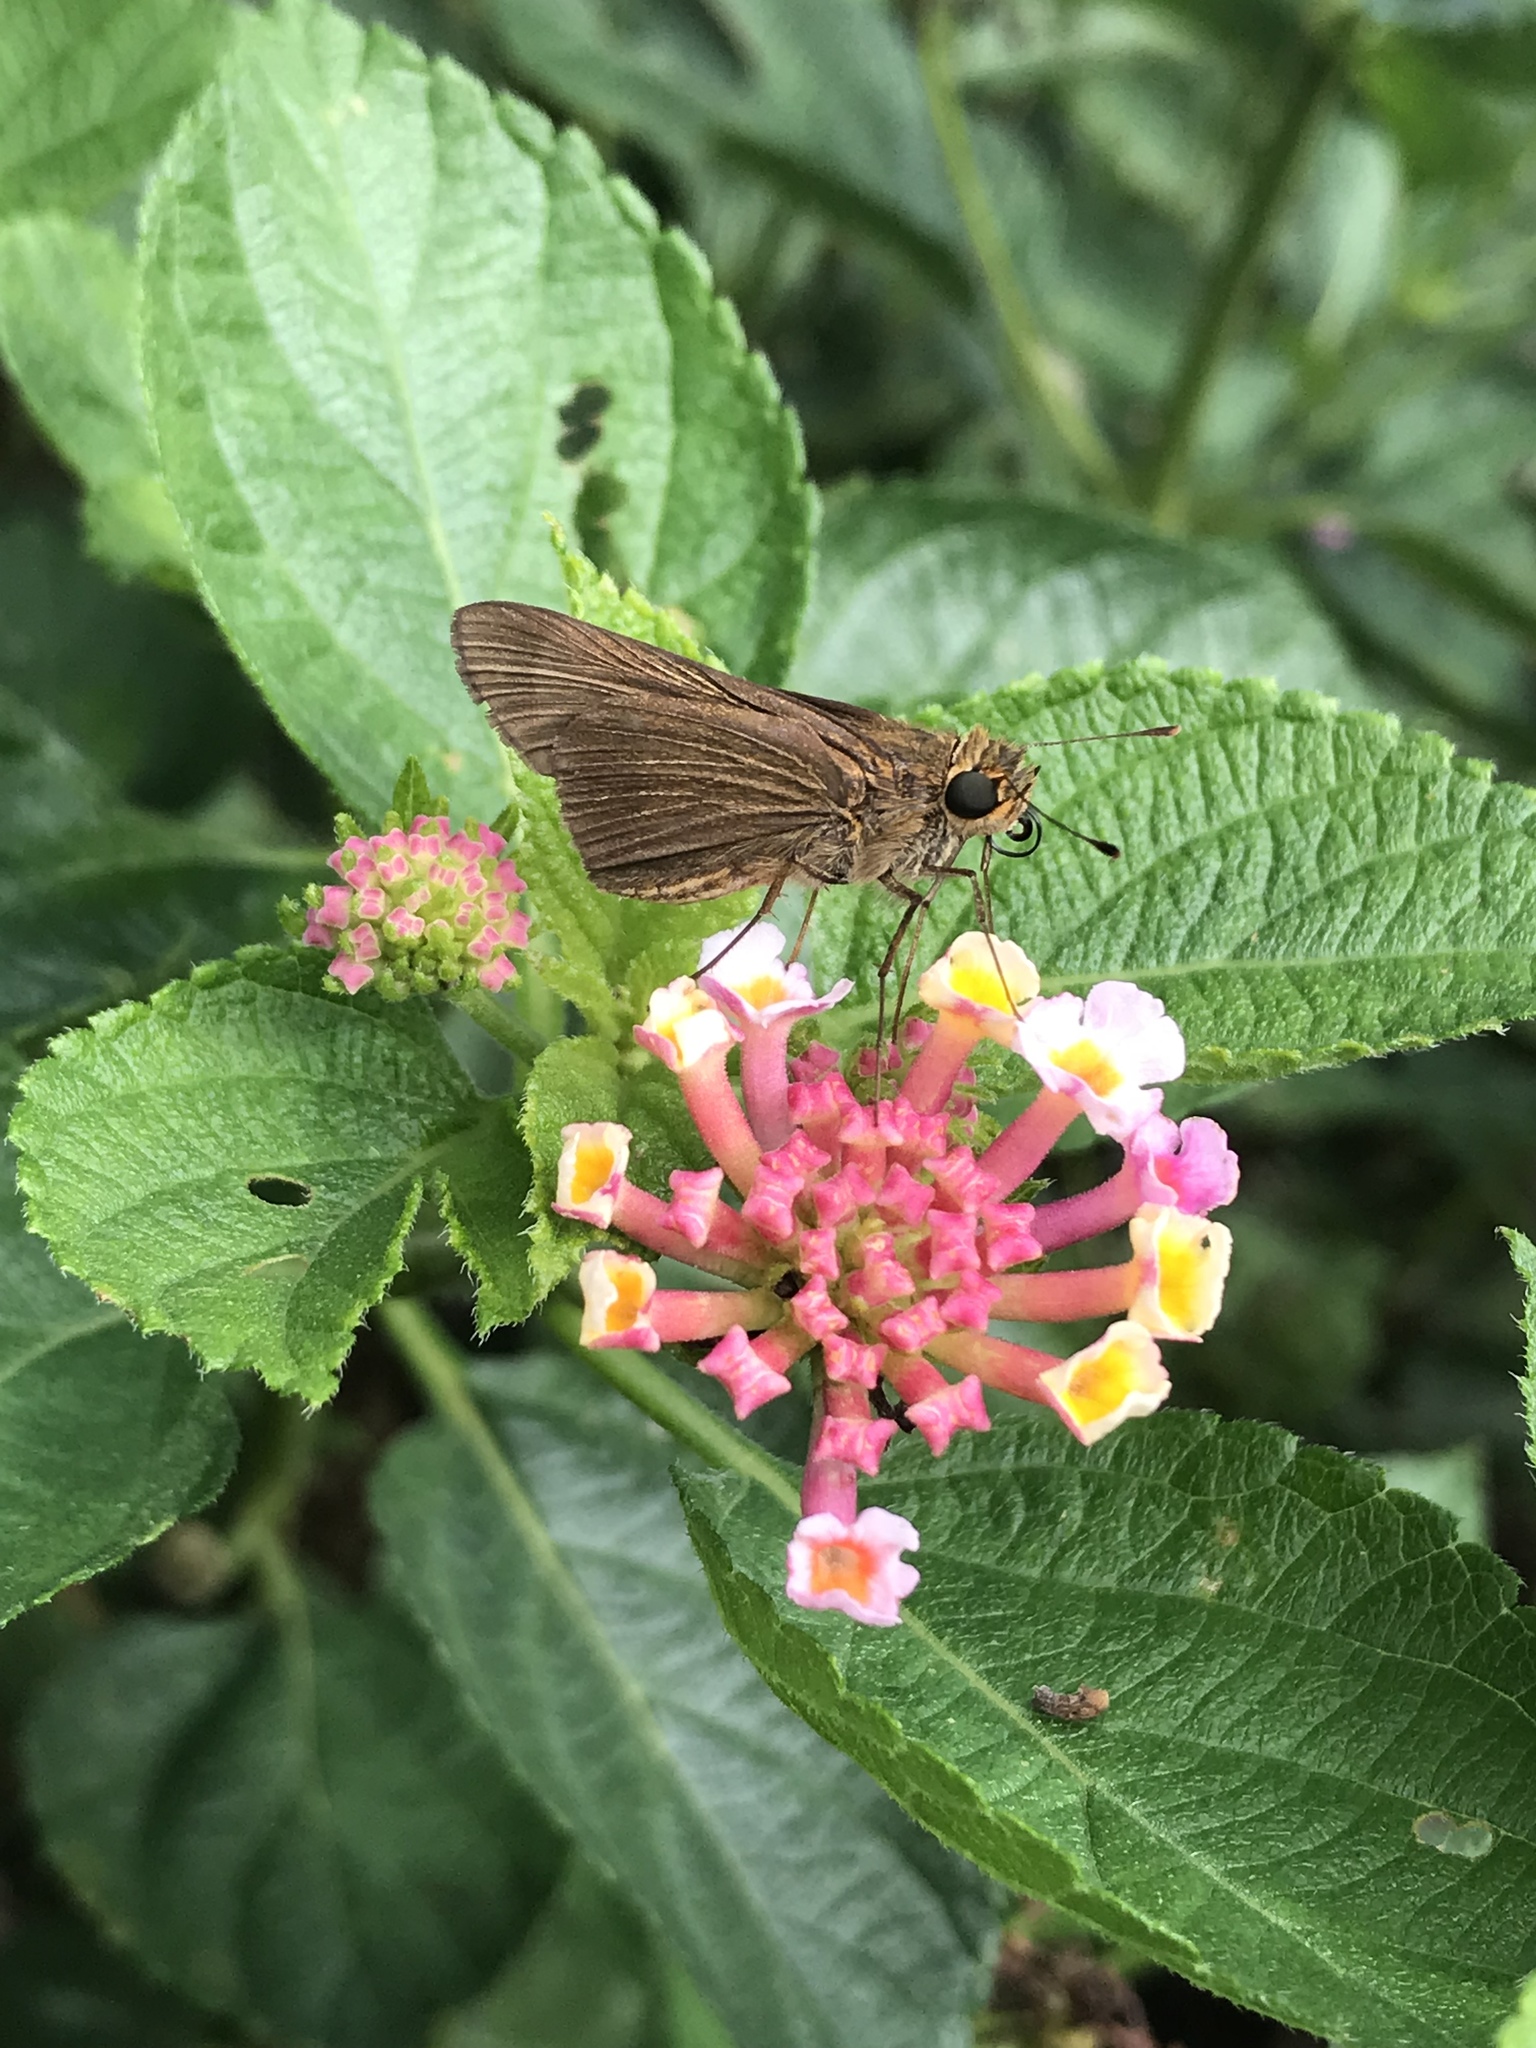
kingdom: Animalia
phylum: Arthropoda
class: Insecta
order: Lepidoptera
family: Hesperiidae
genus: Panoquina
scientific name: Panoquina ocola
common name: Ocola skipper
